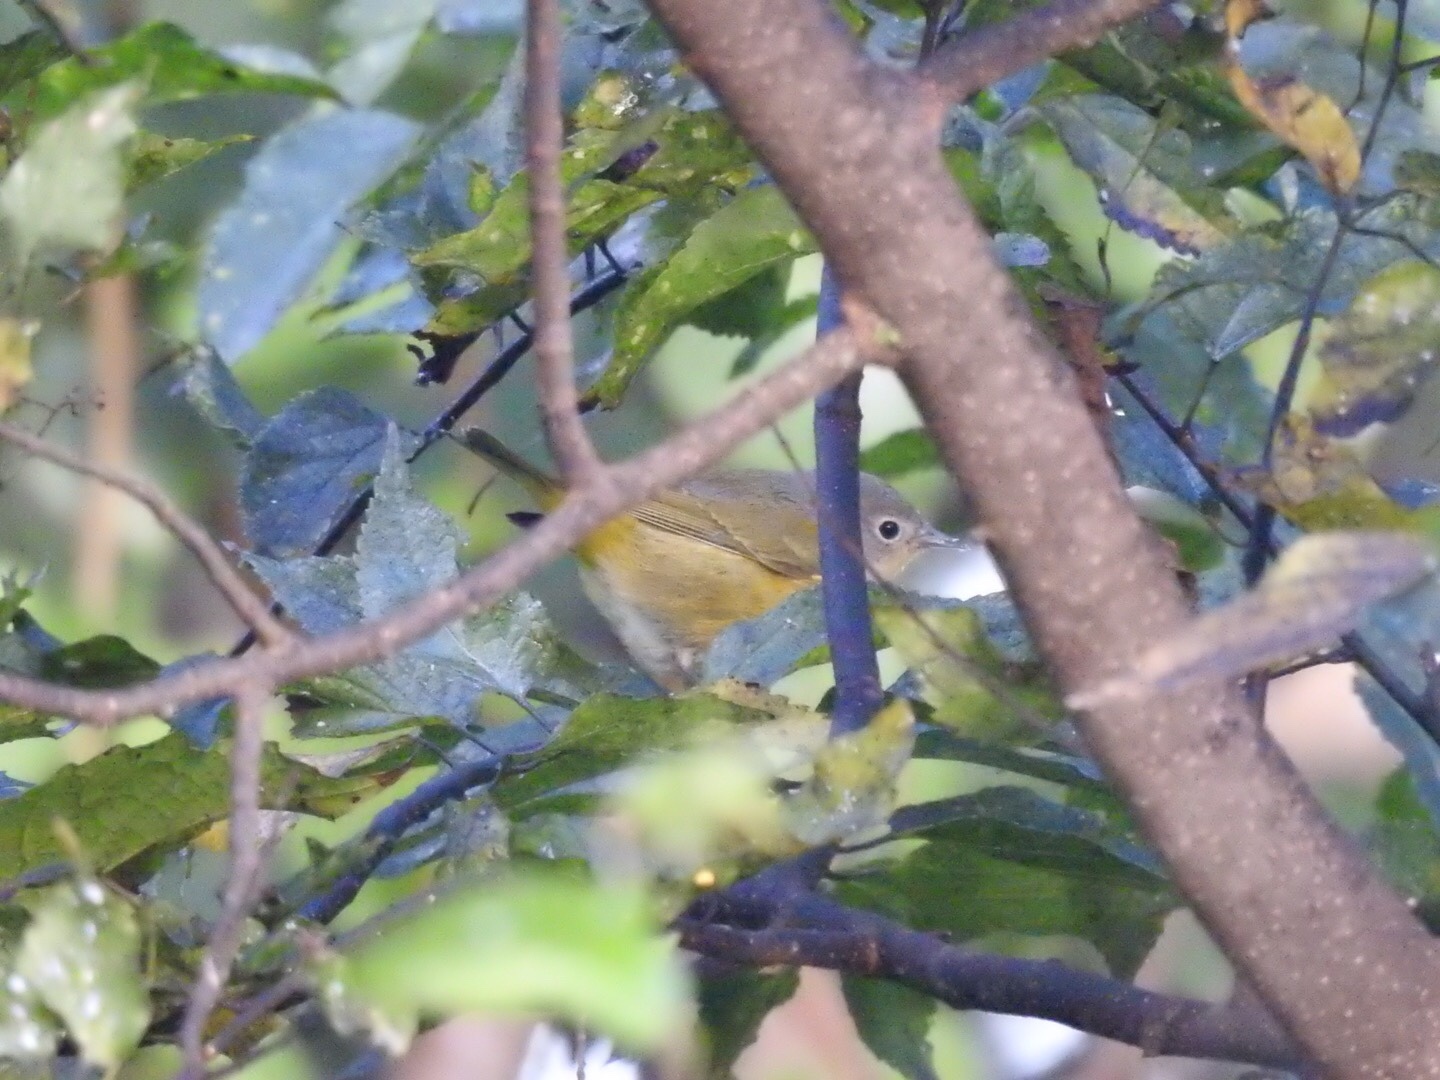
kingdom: Animalia
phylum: Chordata
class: Aves
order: Passeriformes
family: Parulidae
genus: Leiothlypis
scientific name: Leiothlypis ruficapilla
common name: Nashville warbler
